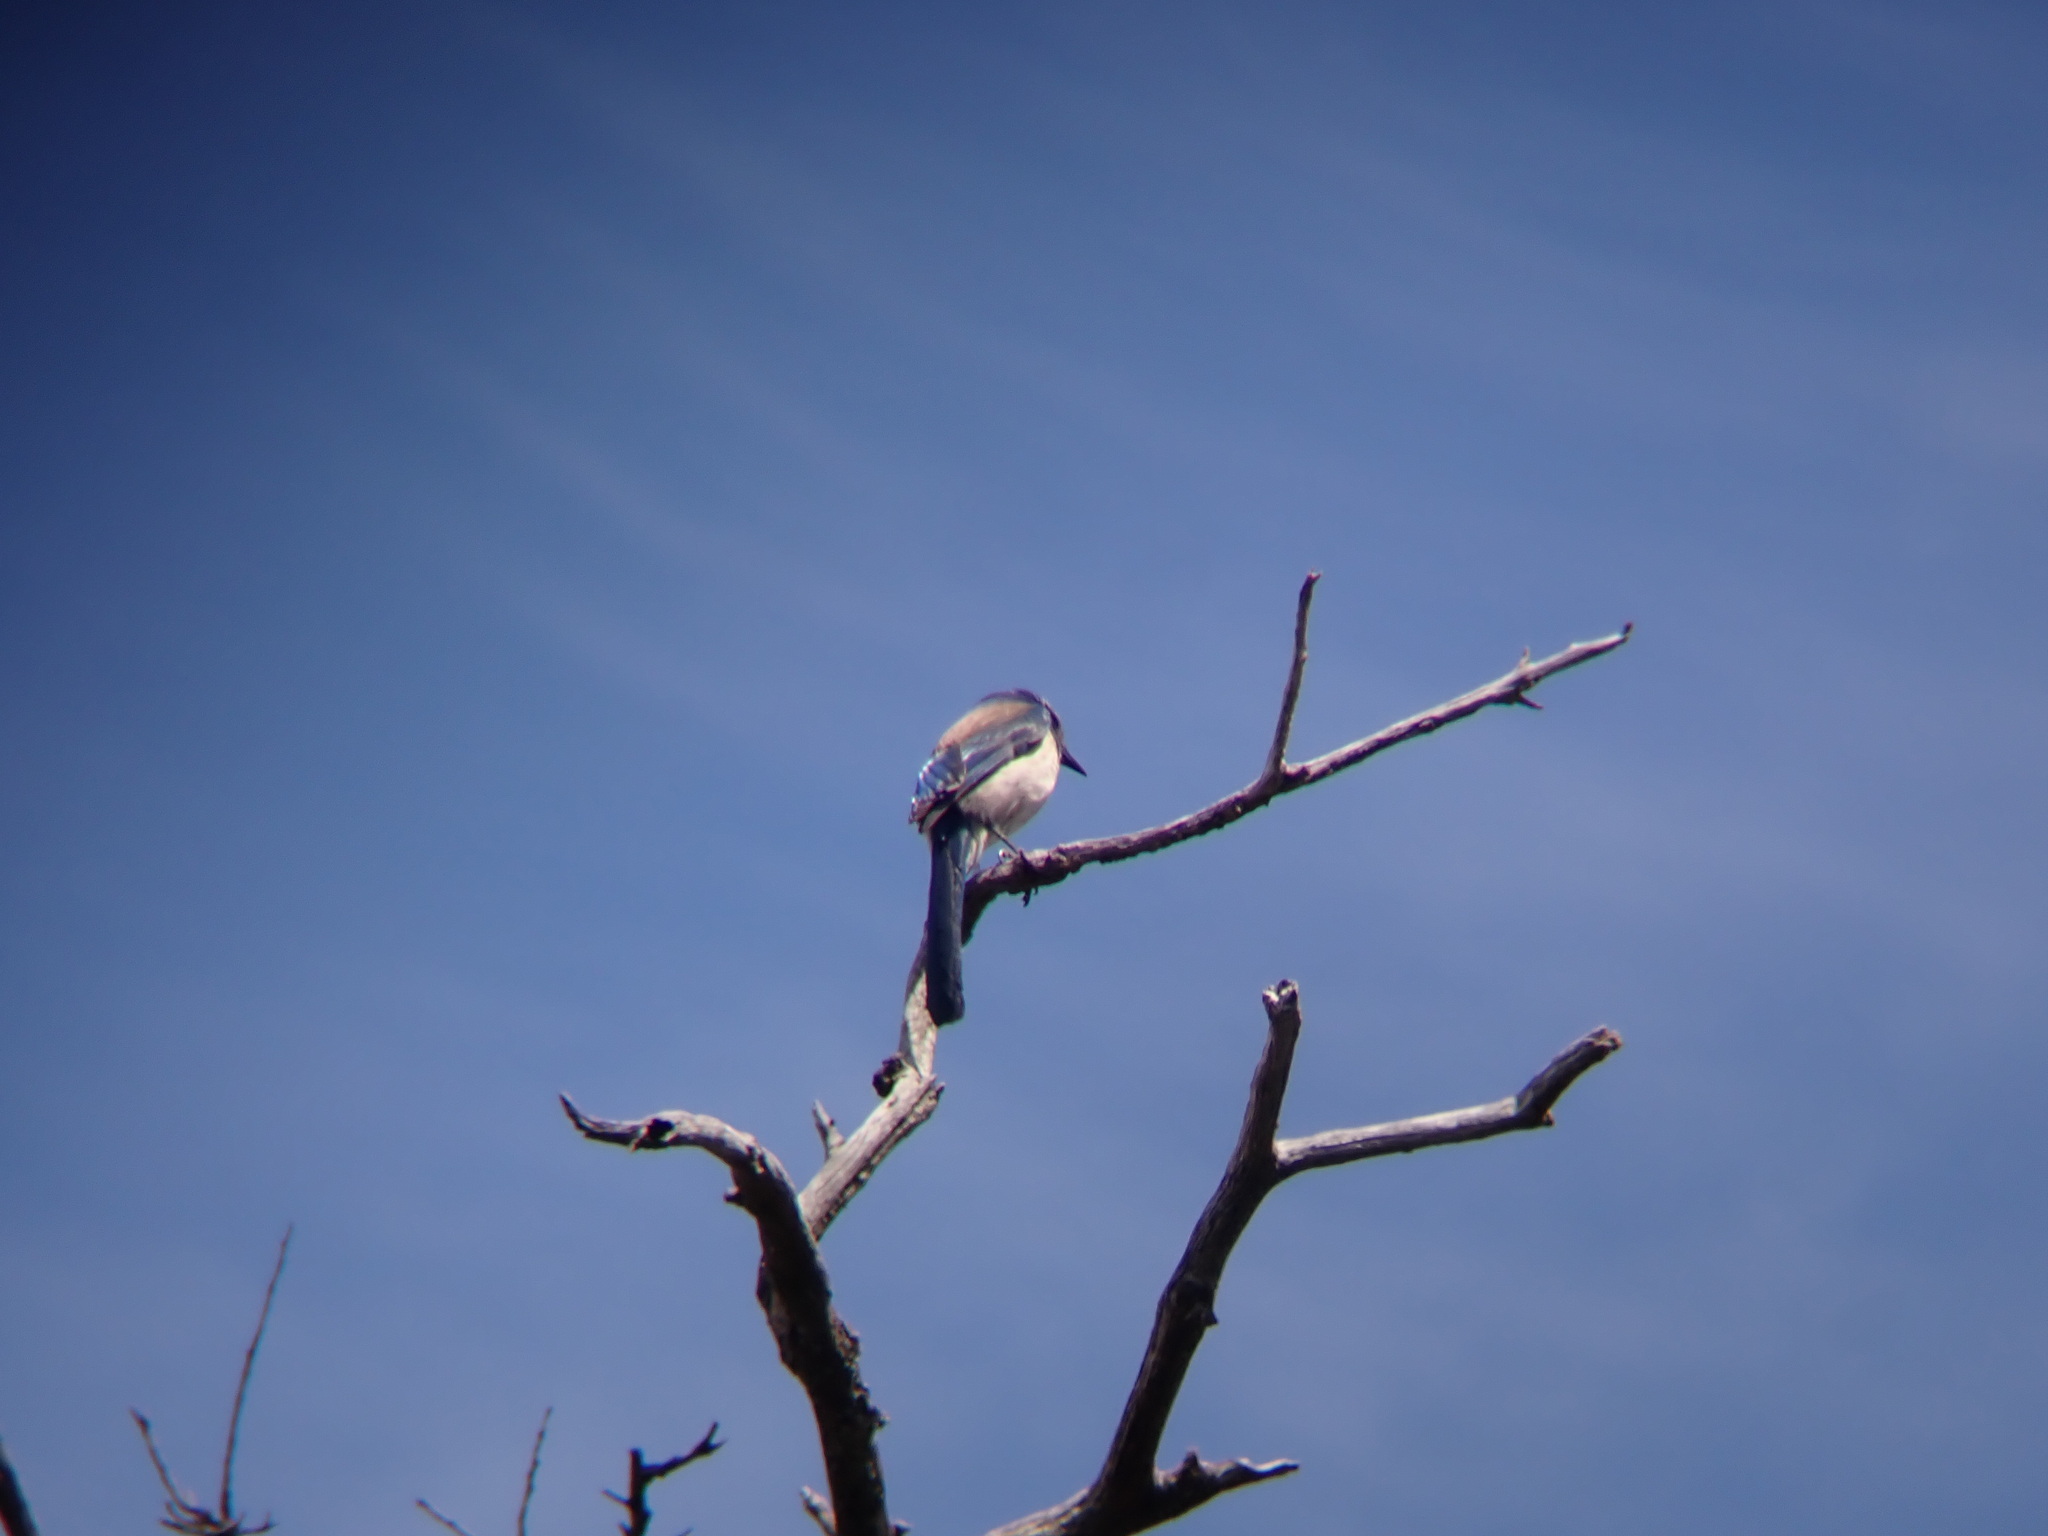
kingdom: Animalia
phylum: Chordata
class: Aves
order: Passeriformes
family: Corvidae
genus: Aphelocoma
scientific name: Aphelocoma californica
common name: California scrub-jay
